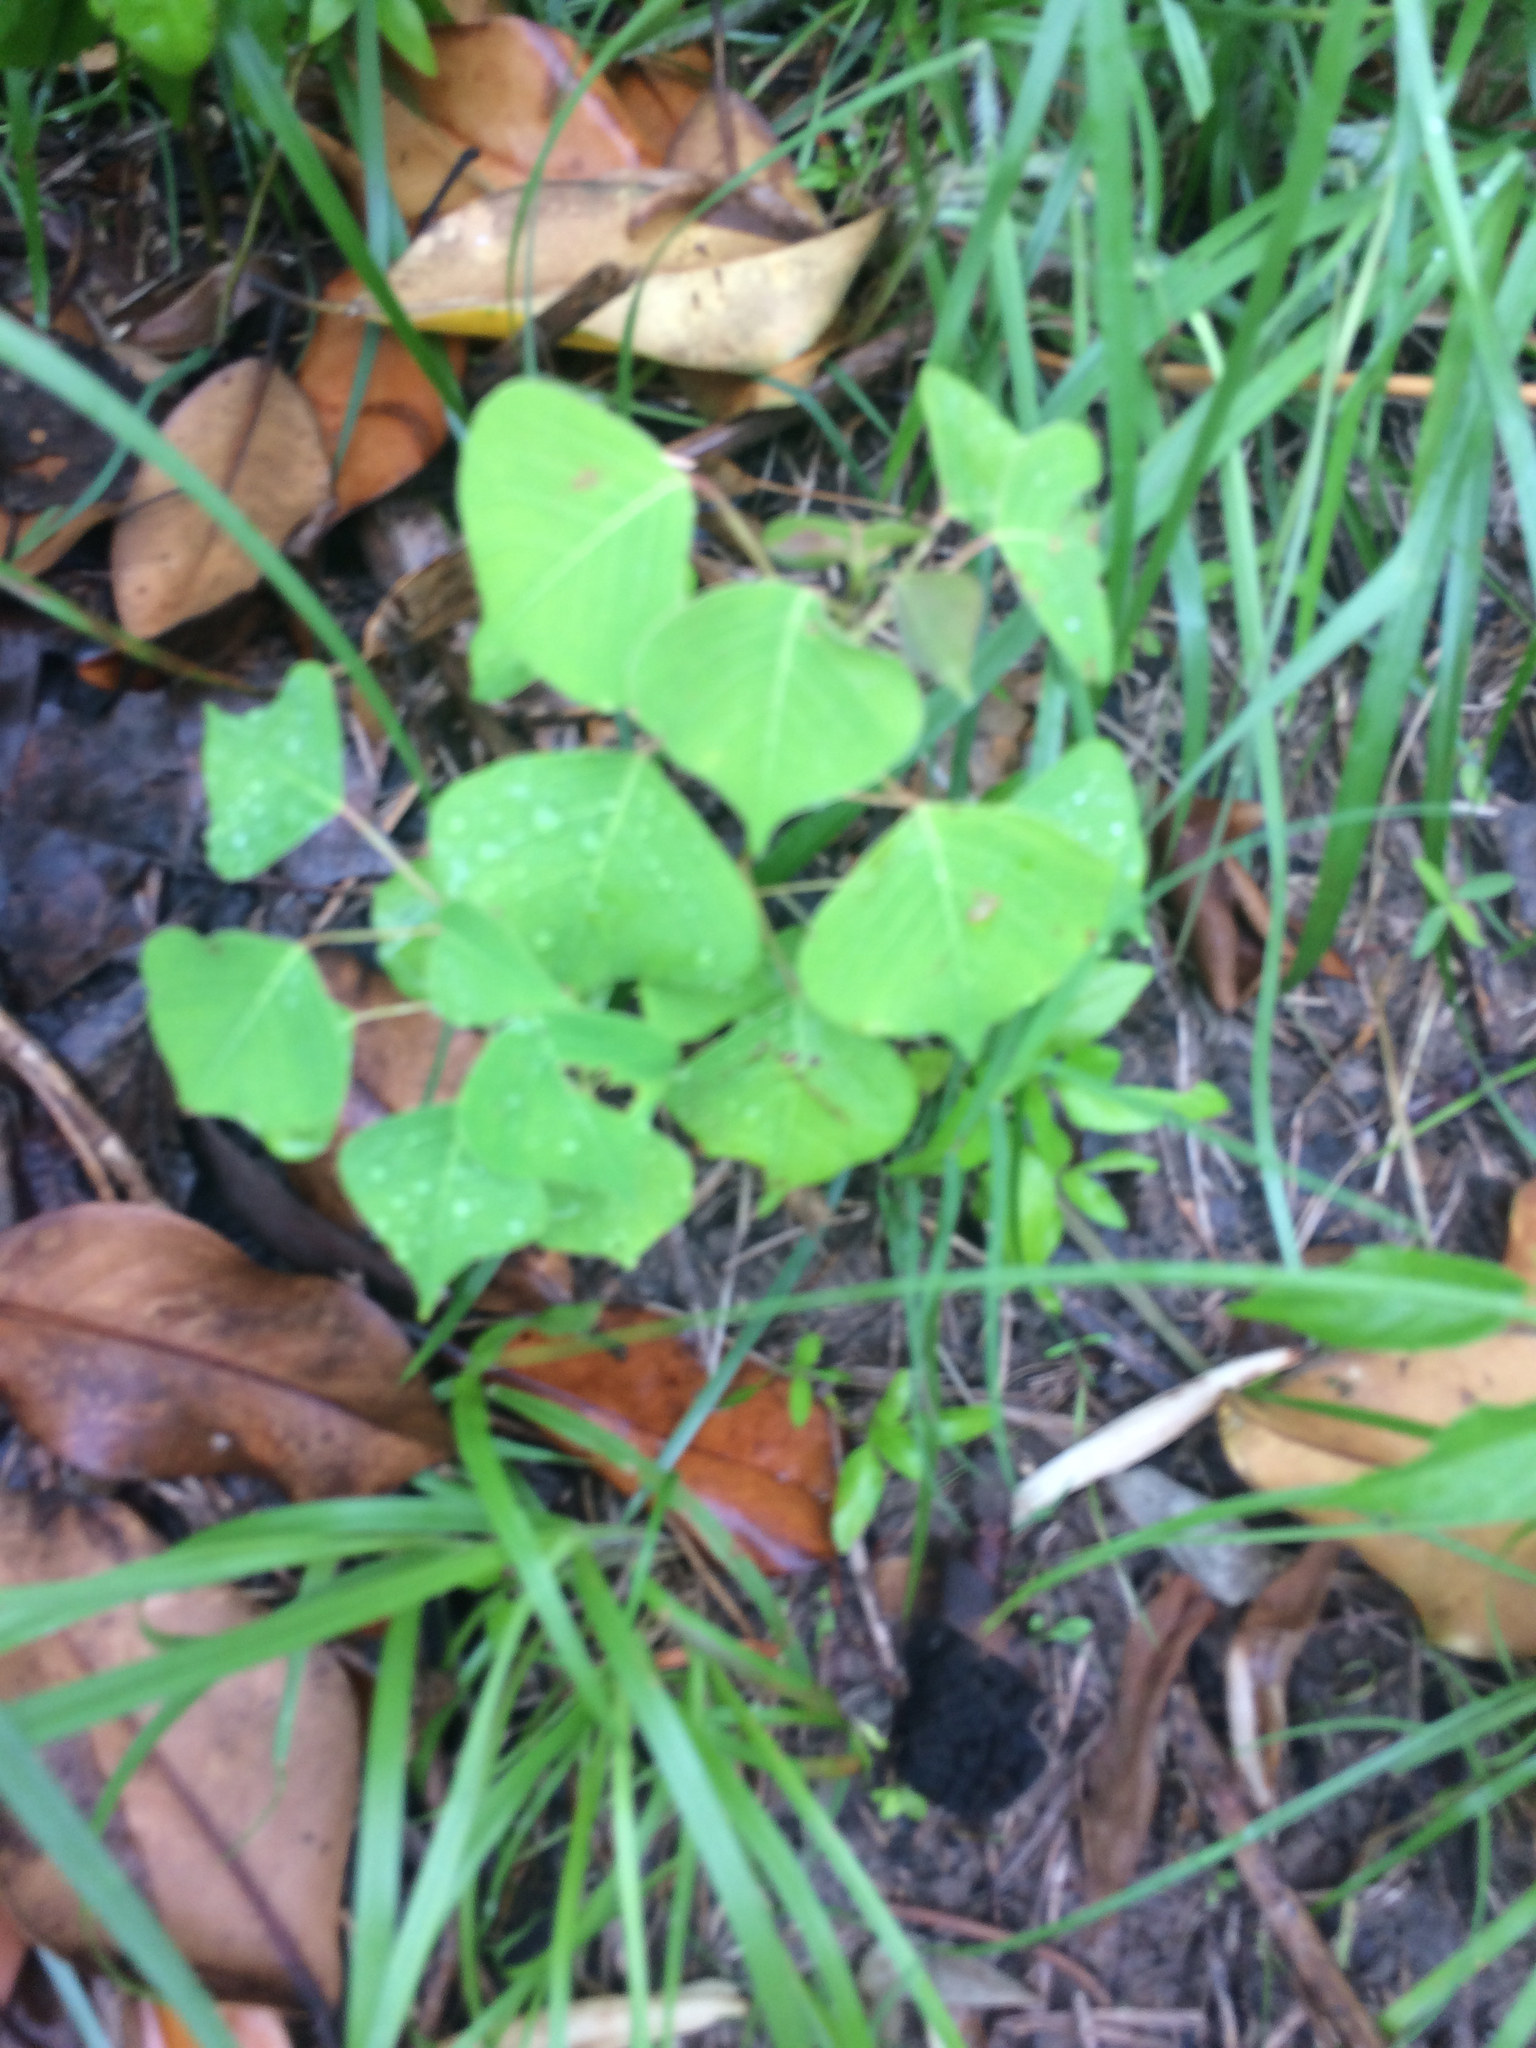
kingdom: Plantae
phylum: Tracheophyta
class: Magnoliopsida
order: Malpighiales
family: Euphorbiaceae
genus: Triadica
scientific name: Triadica sebifera
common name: Chinese tallow
